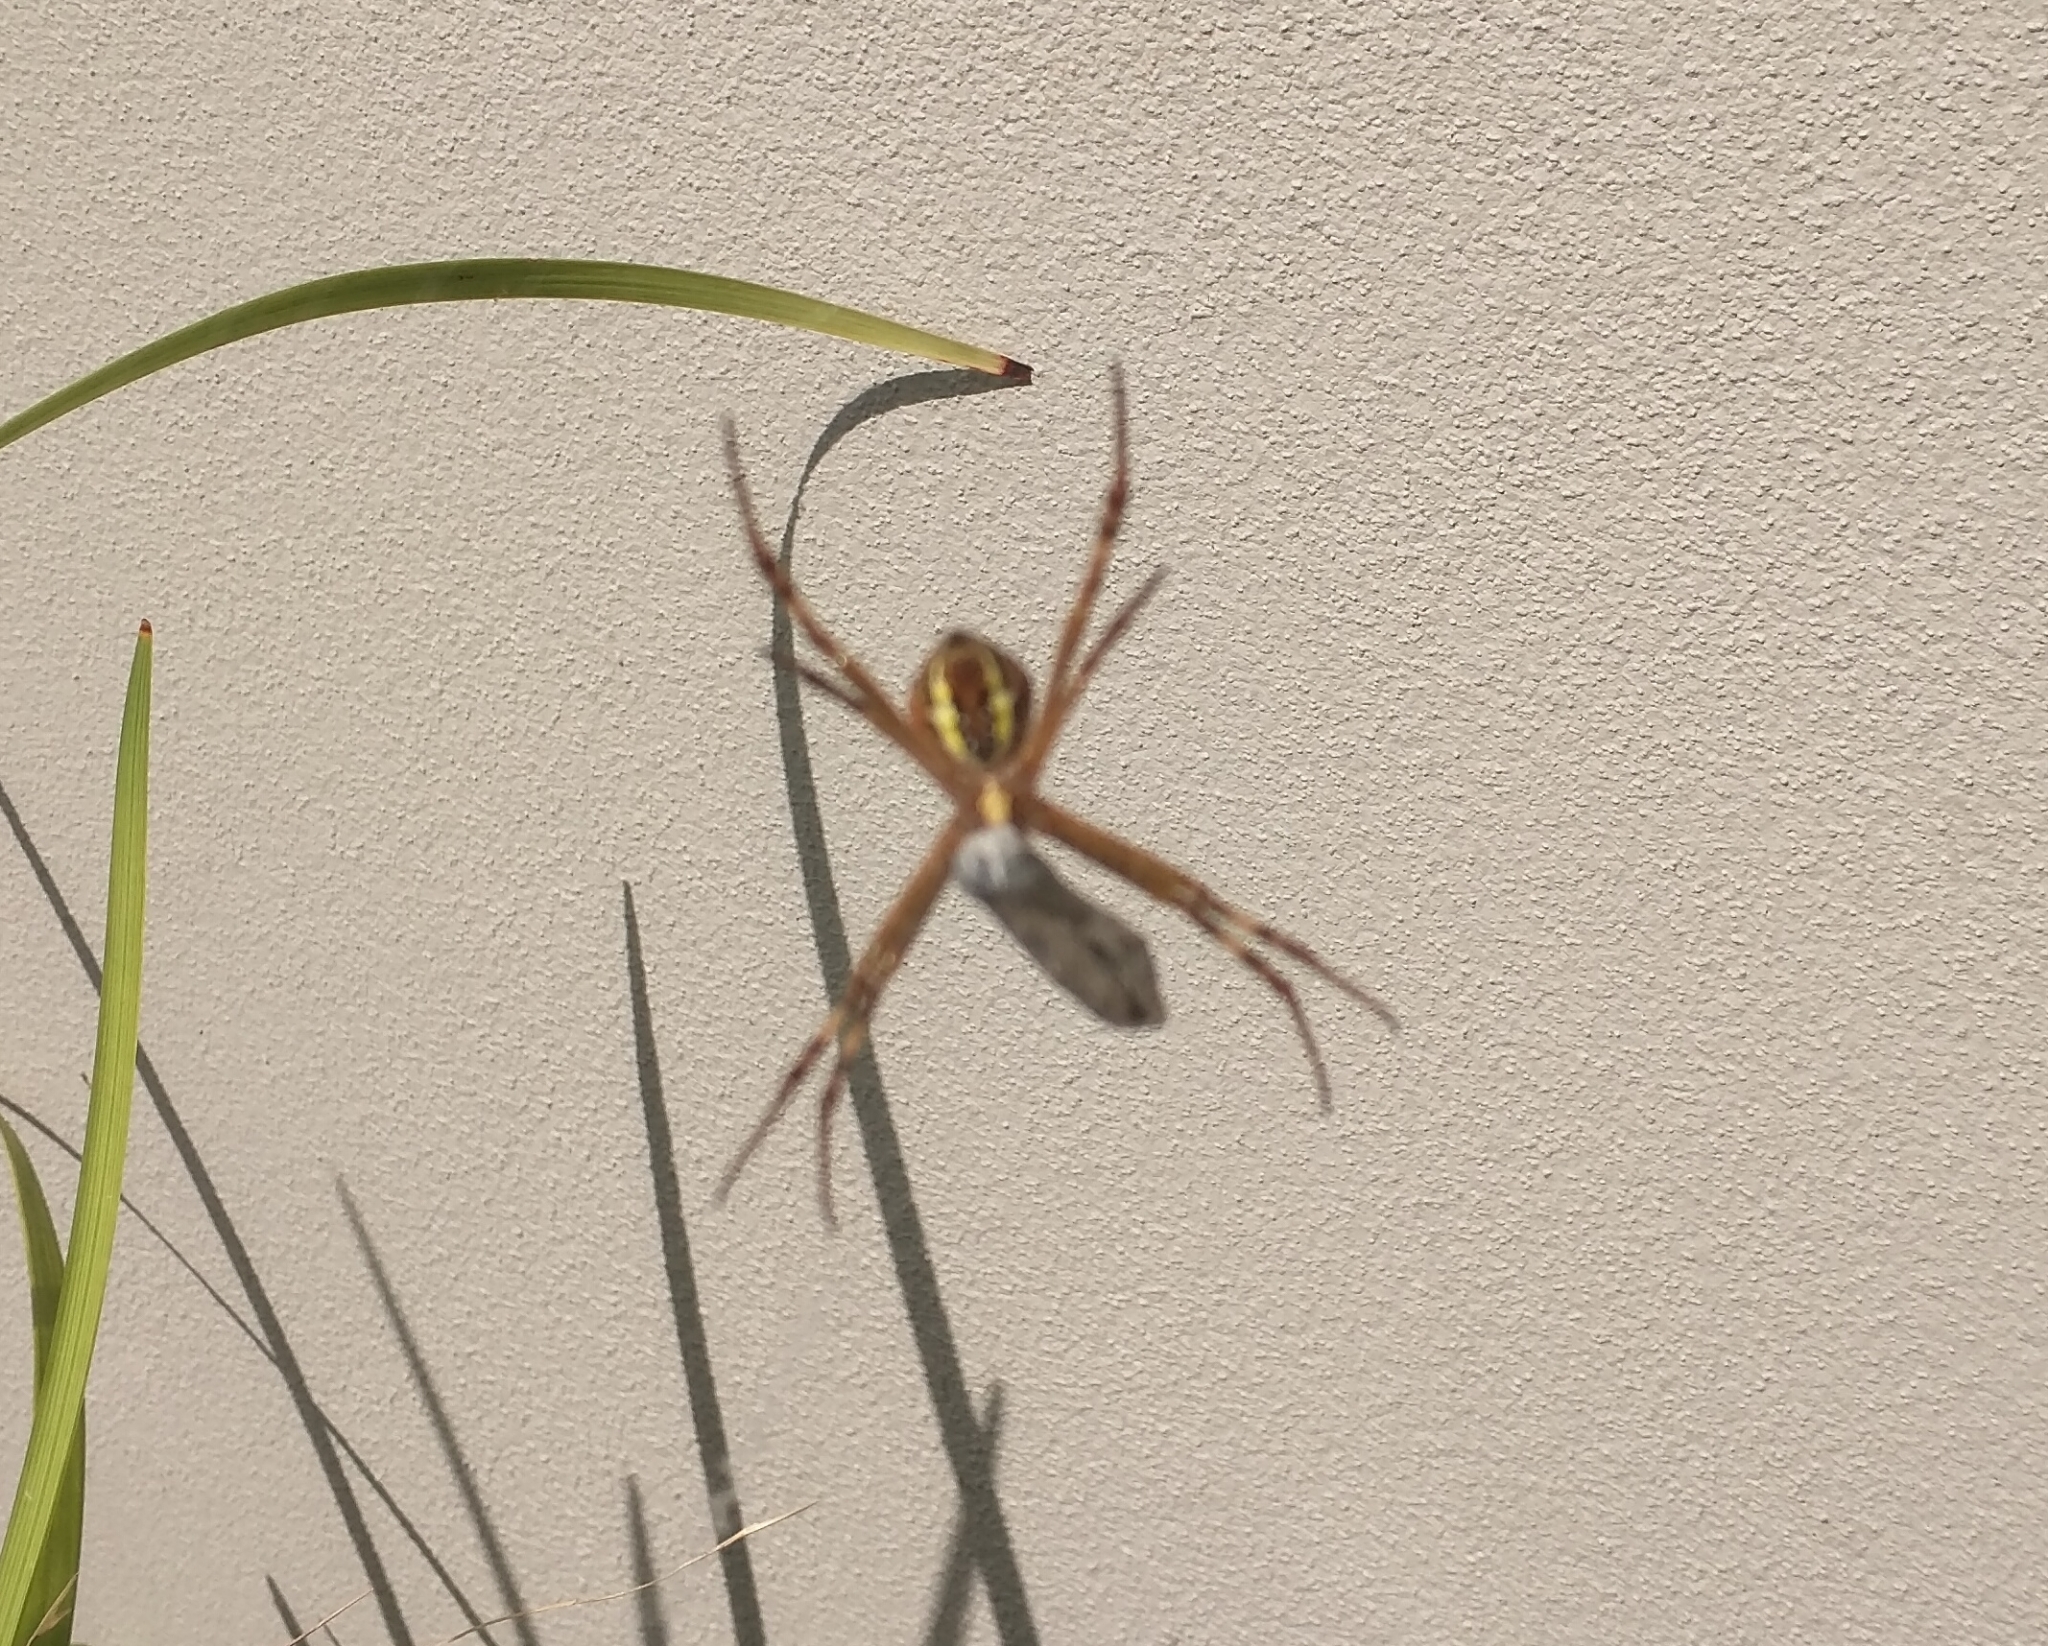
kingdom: Animalia
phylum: Arthropoda
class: Arachnida
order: Araneae
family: Araneidae
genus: Argiope
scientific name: Argiope keyserlingi
